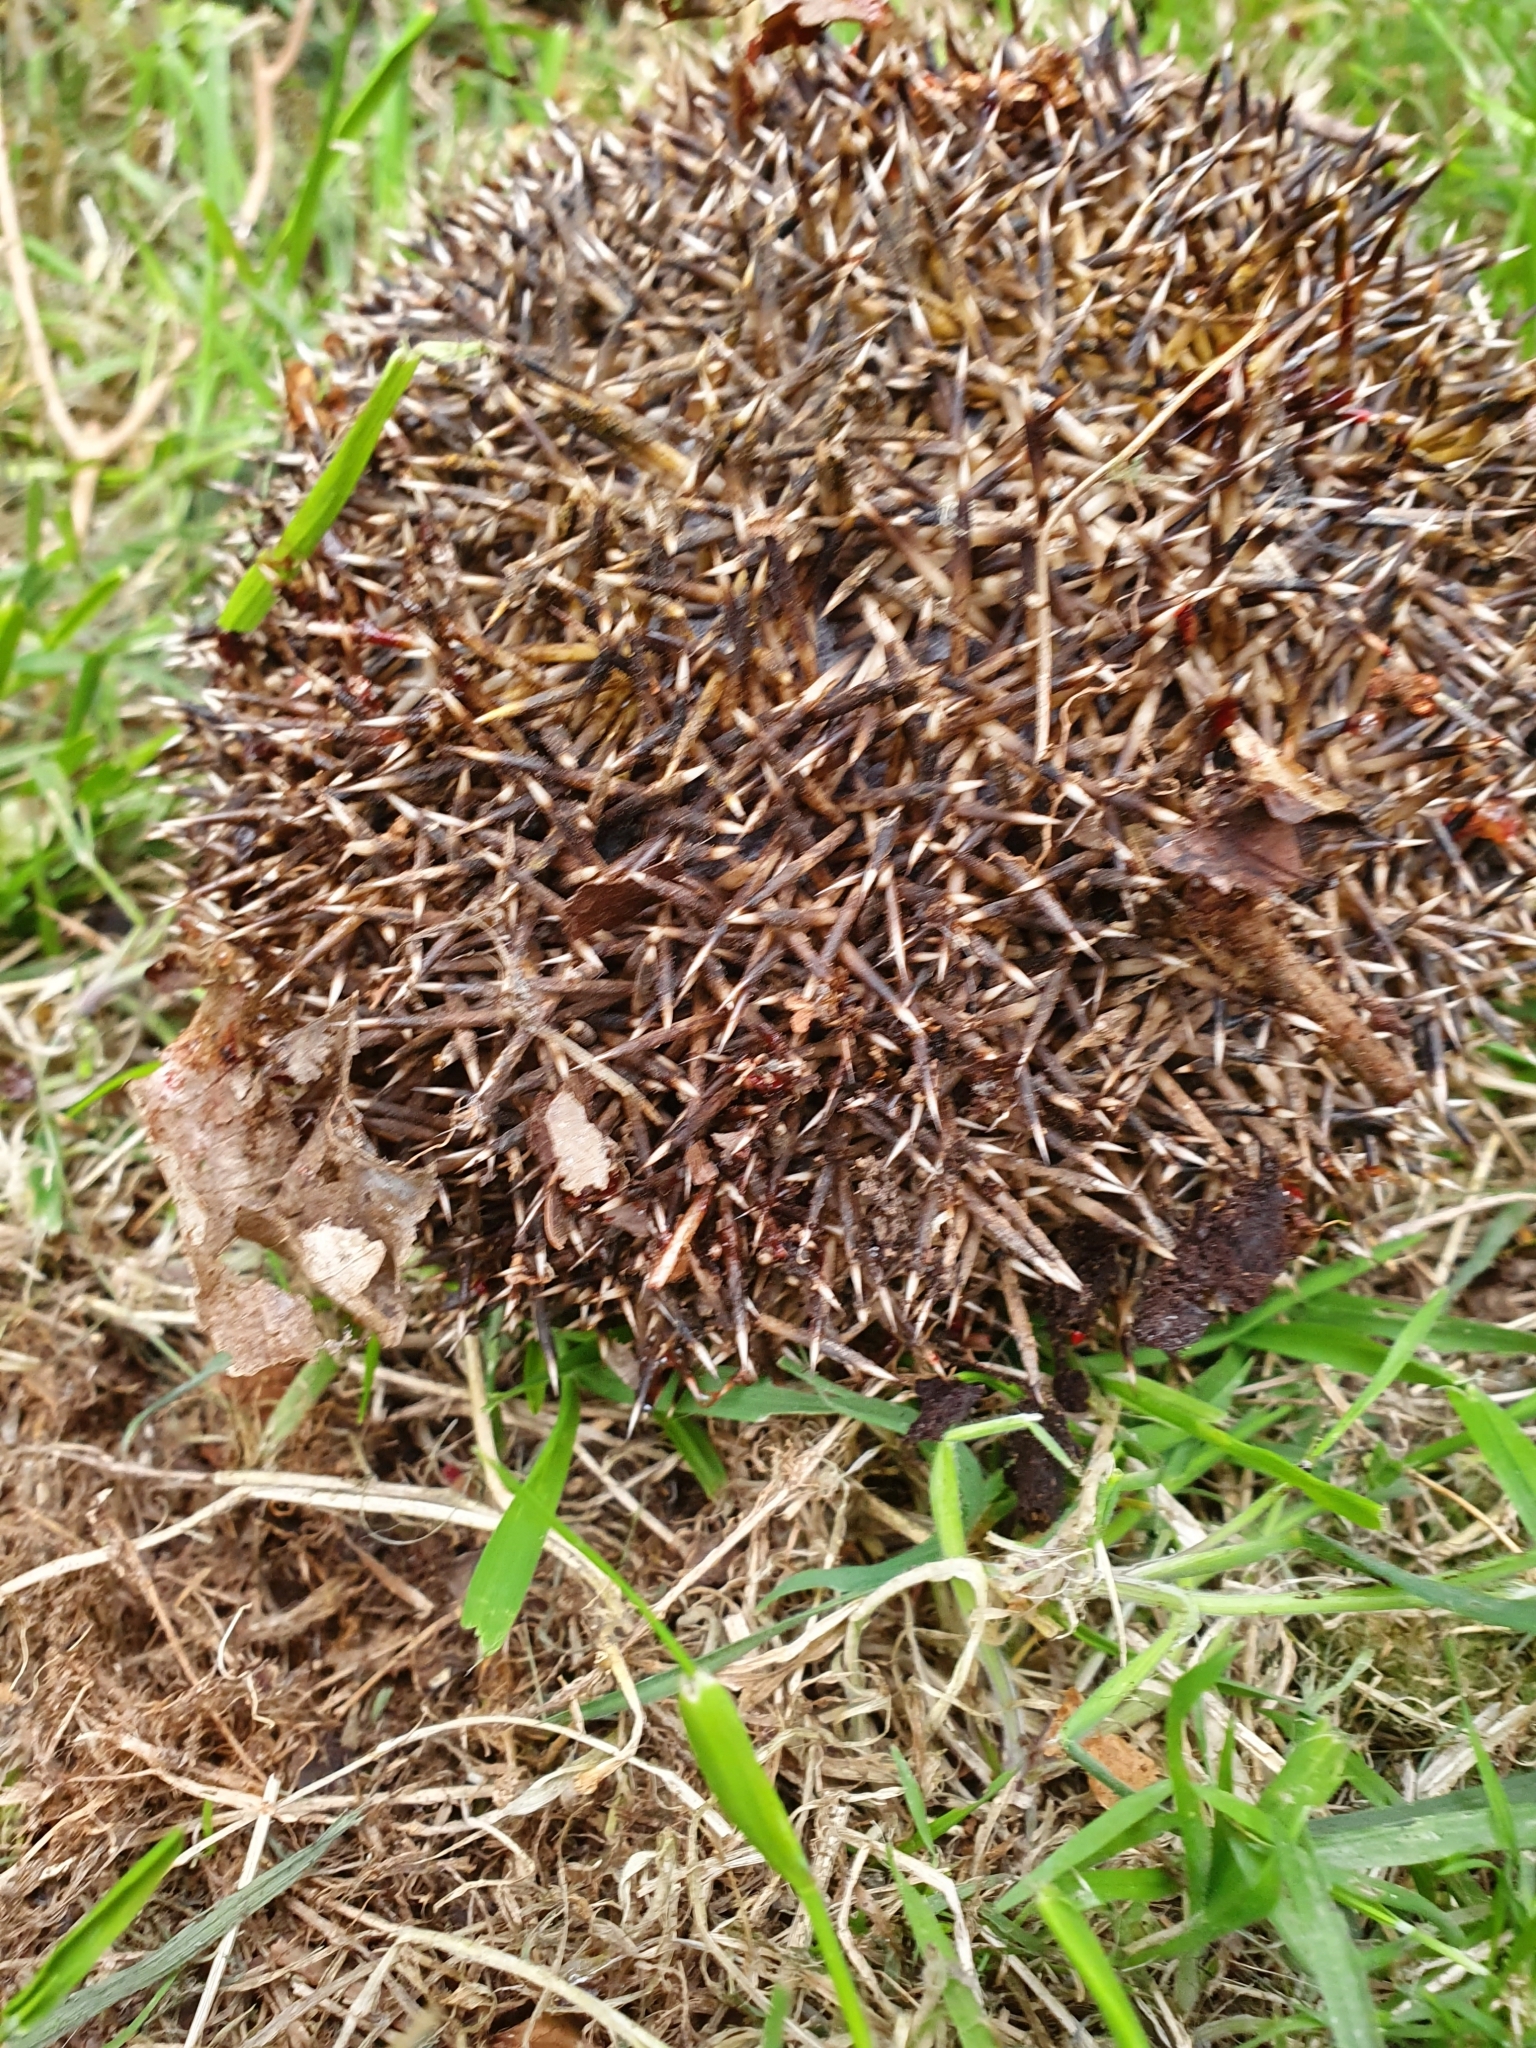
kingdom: Animalia
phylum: Chordata
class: Mammalia
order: Erinaceomorpha
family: Erinaceidae
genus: Erinaceus
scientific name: Erinaceus europaeus
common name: West european hedgehog
